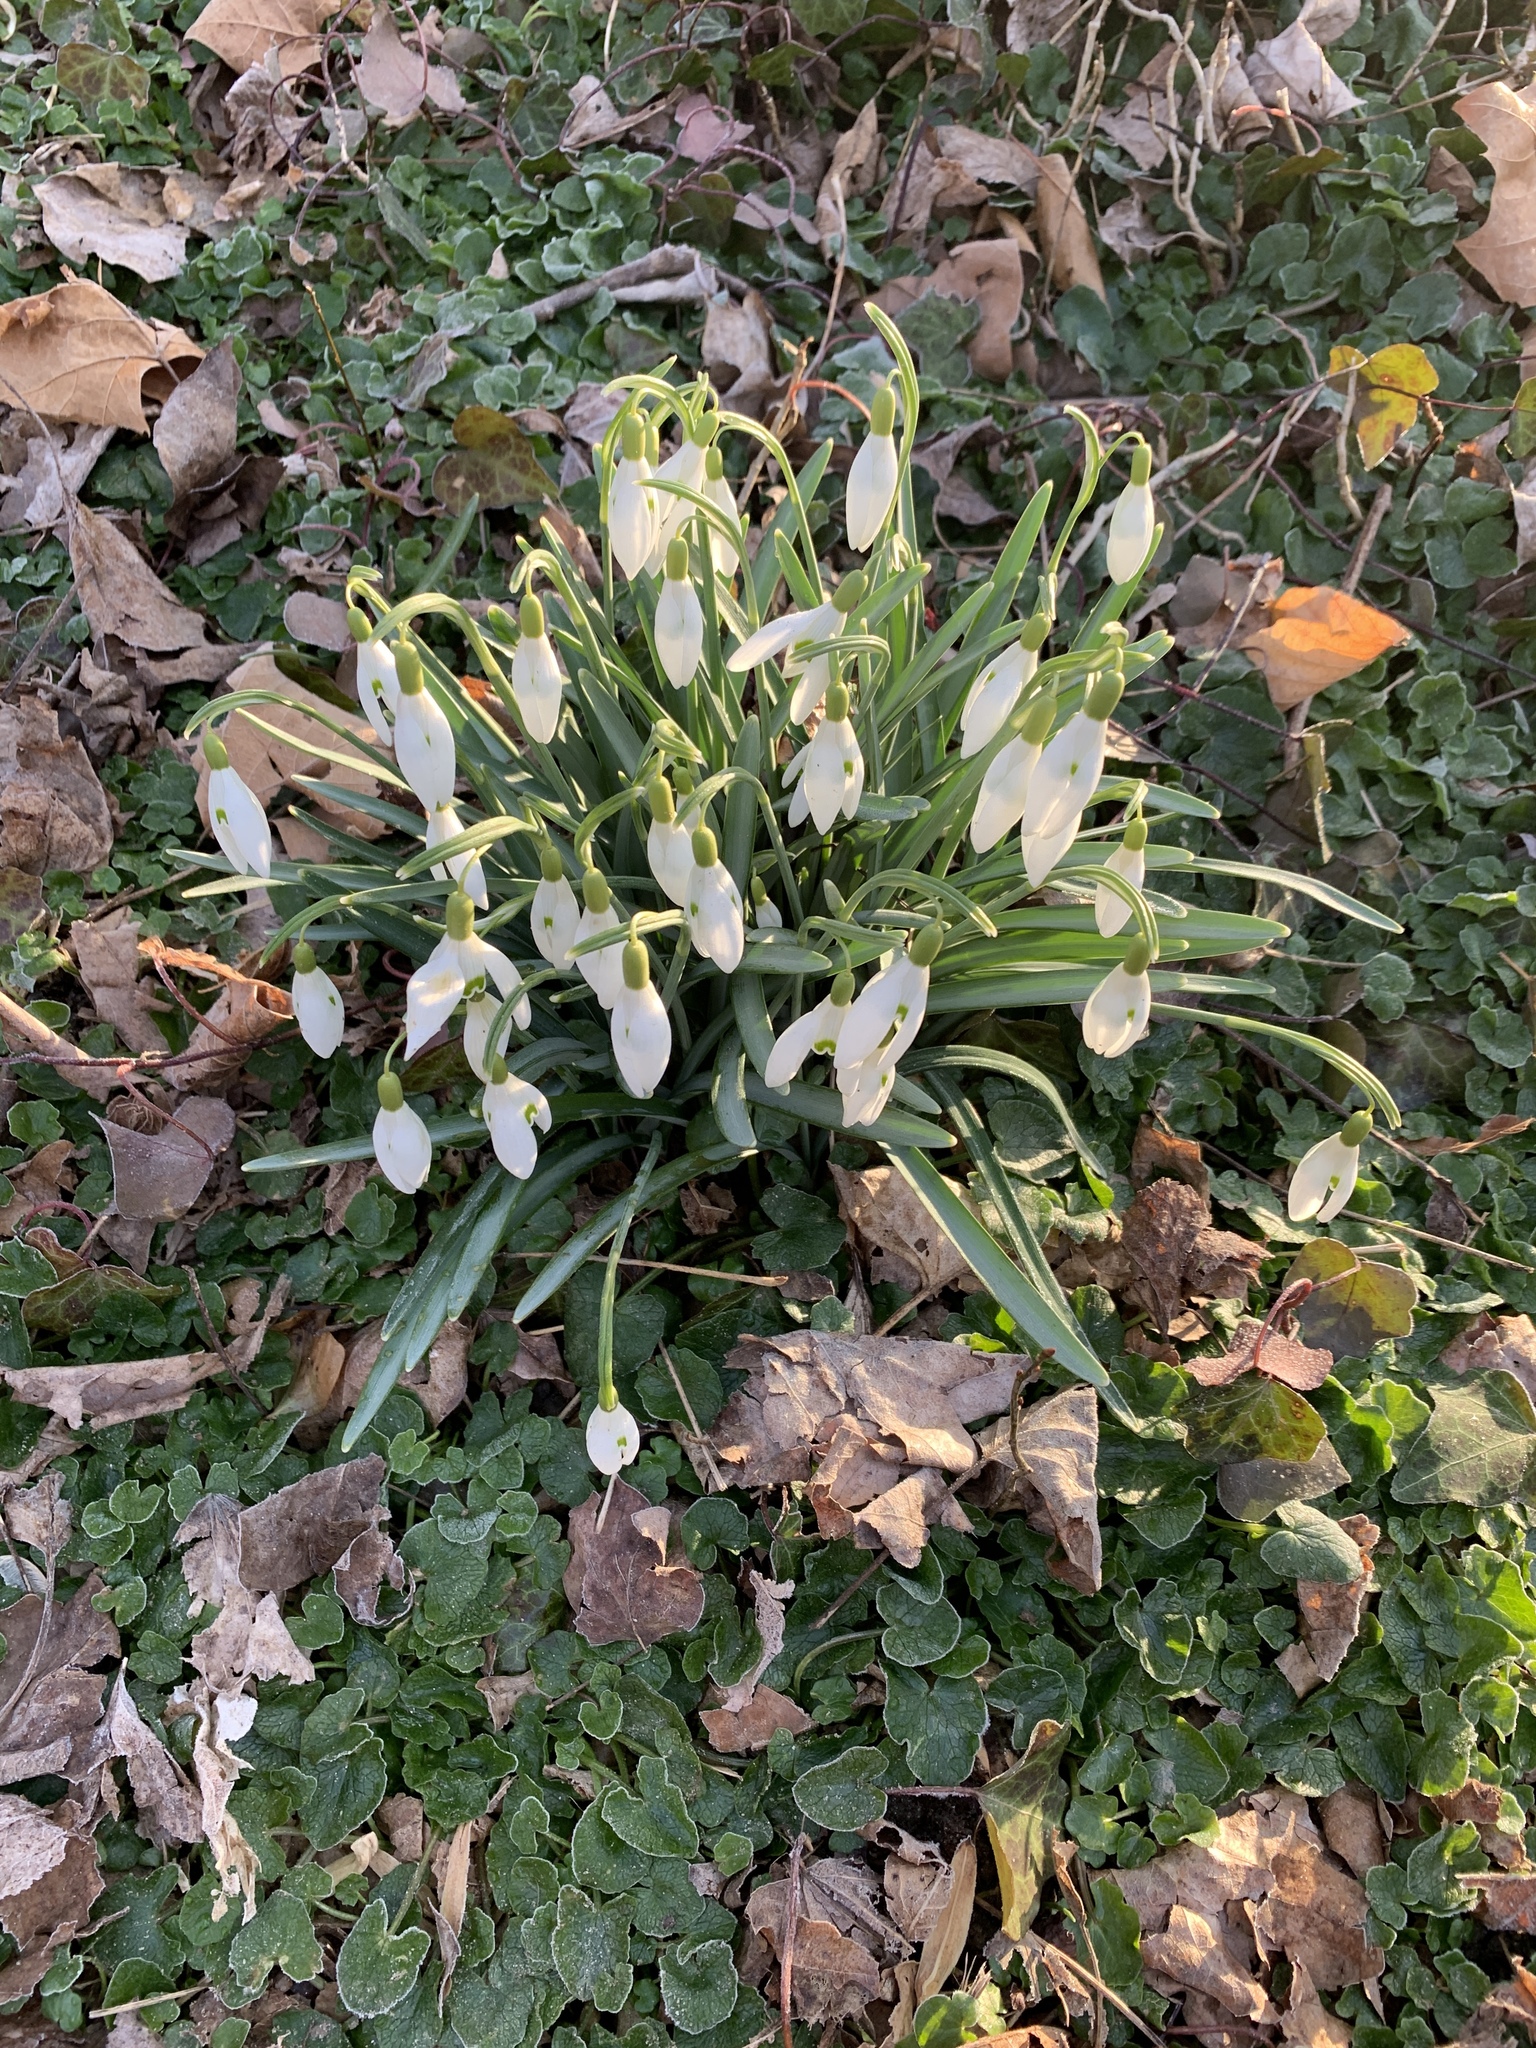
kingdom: Plantae
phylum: Tracheophyta
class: Liliopsida
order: Asparagales
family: Amaryllidaceae
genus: Galanthus
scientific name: Galanthus nivalis
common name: Snowdrop
